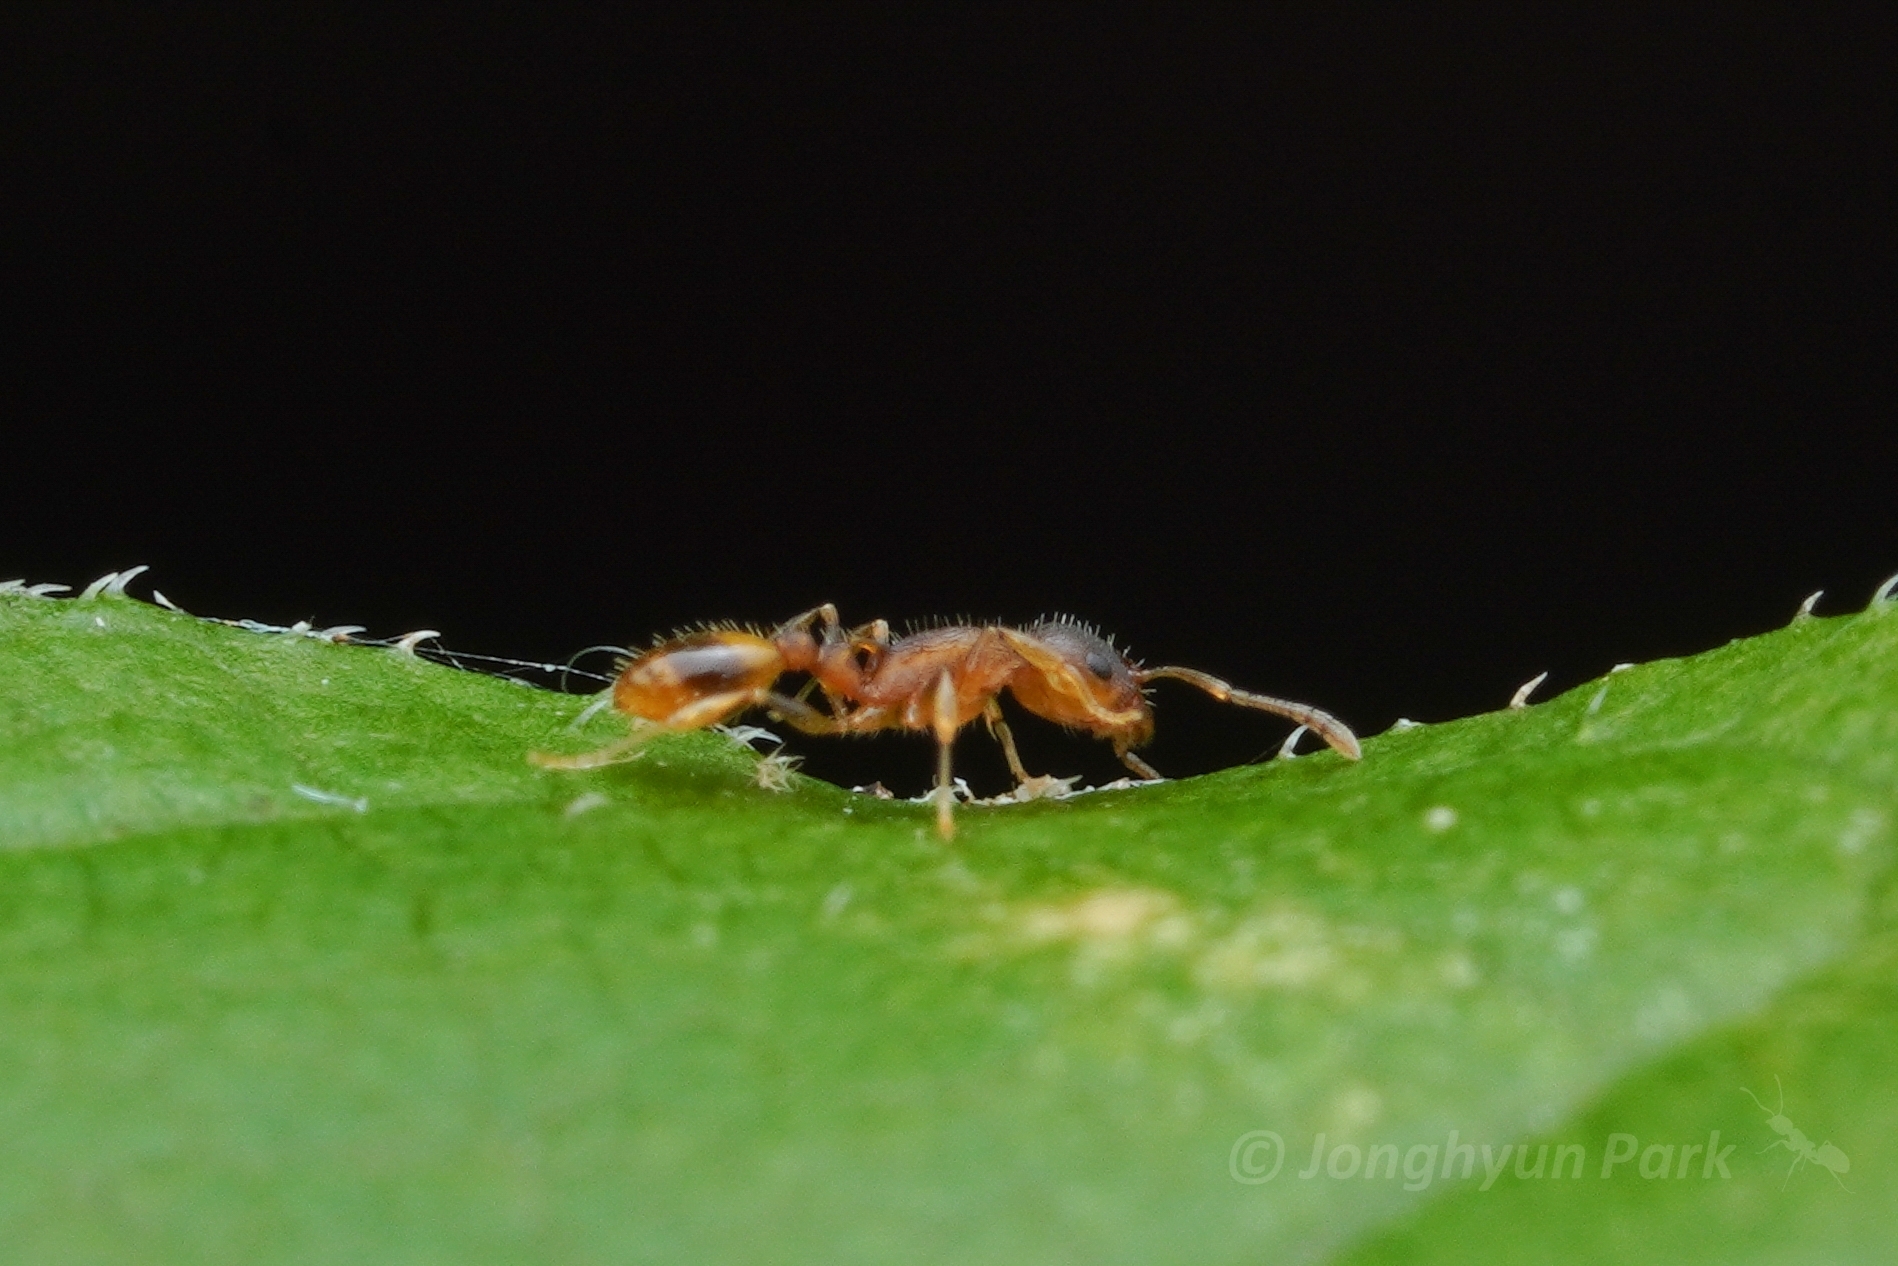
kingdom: Animalia
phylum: Arthropoda
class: Insecta
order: Hymenoptera
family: Formicidae
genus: Temnothorax
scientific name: Temnothorax curvispinosus
